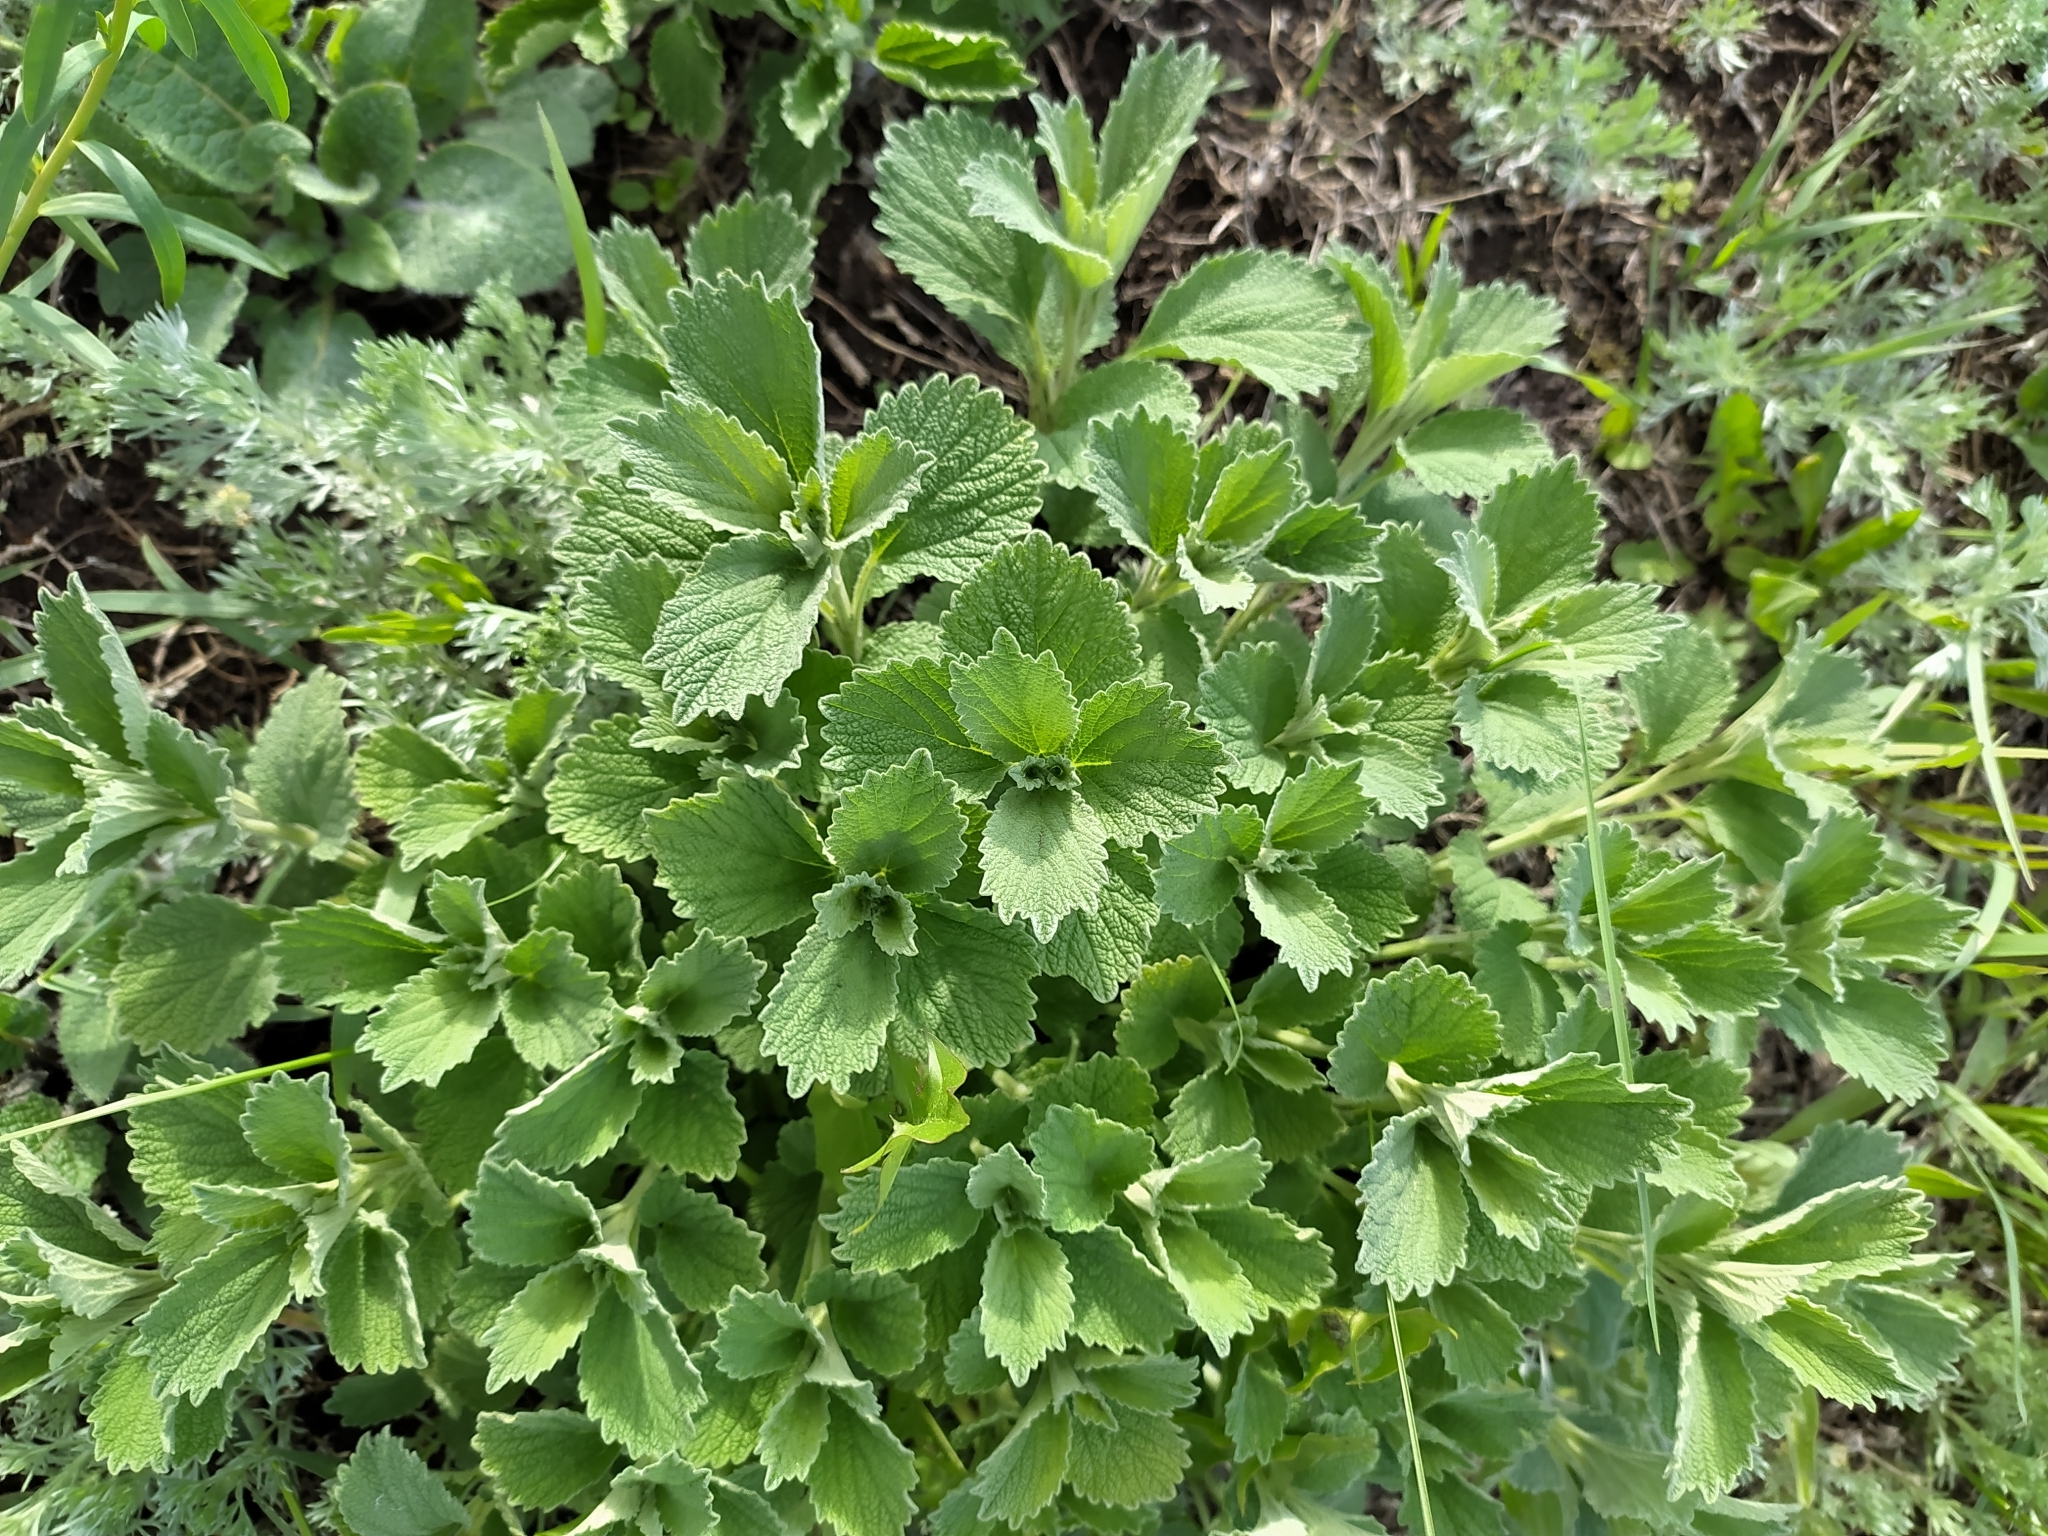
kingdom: Plantae
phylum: Tracheophyta
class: Magnoliopsida
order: Lamiales
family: Lamiaceae
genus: Marrubium
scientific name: Marrubium peregrinum
